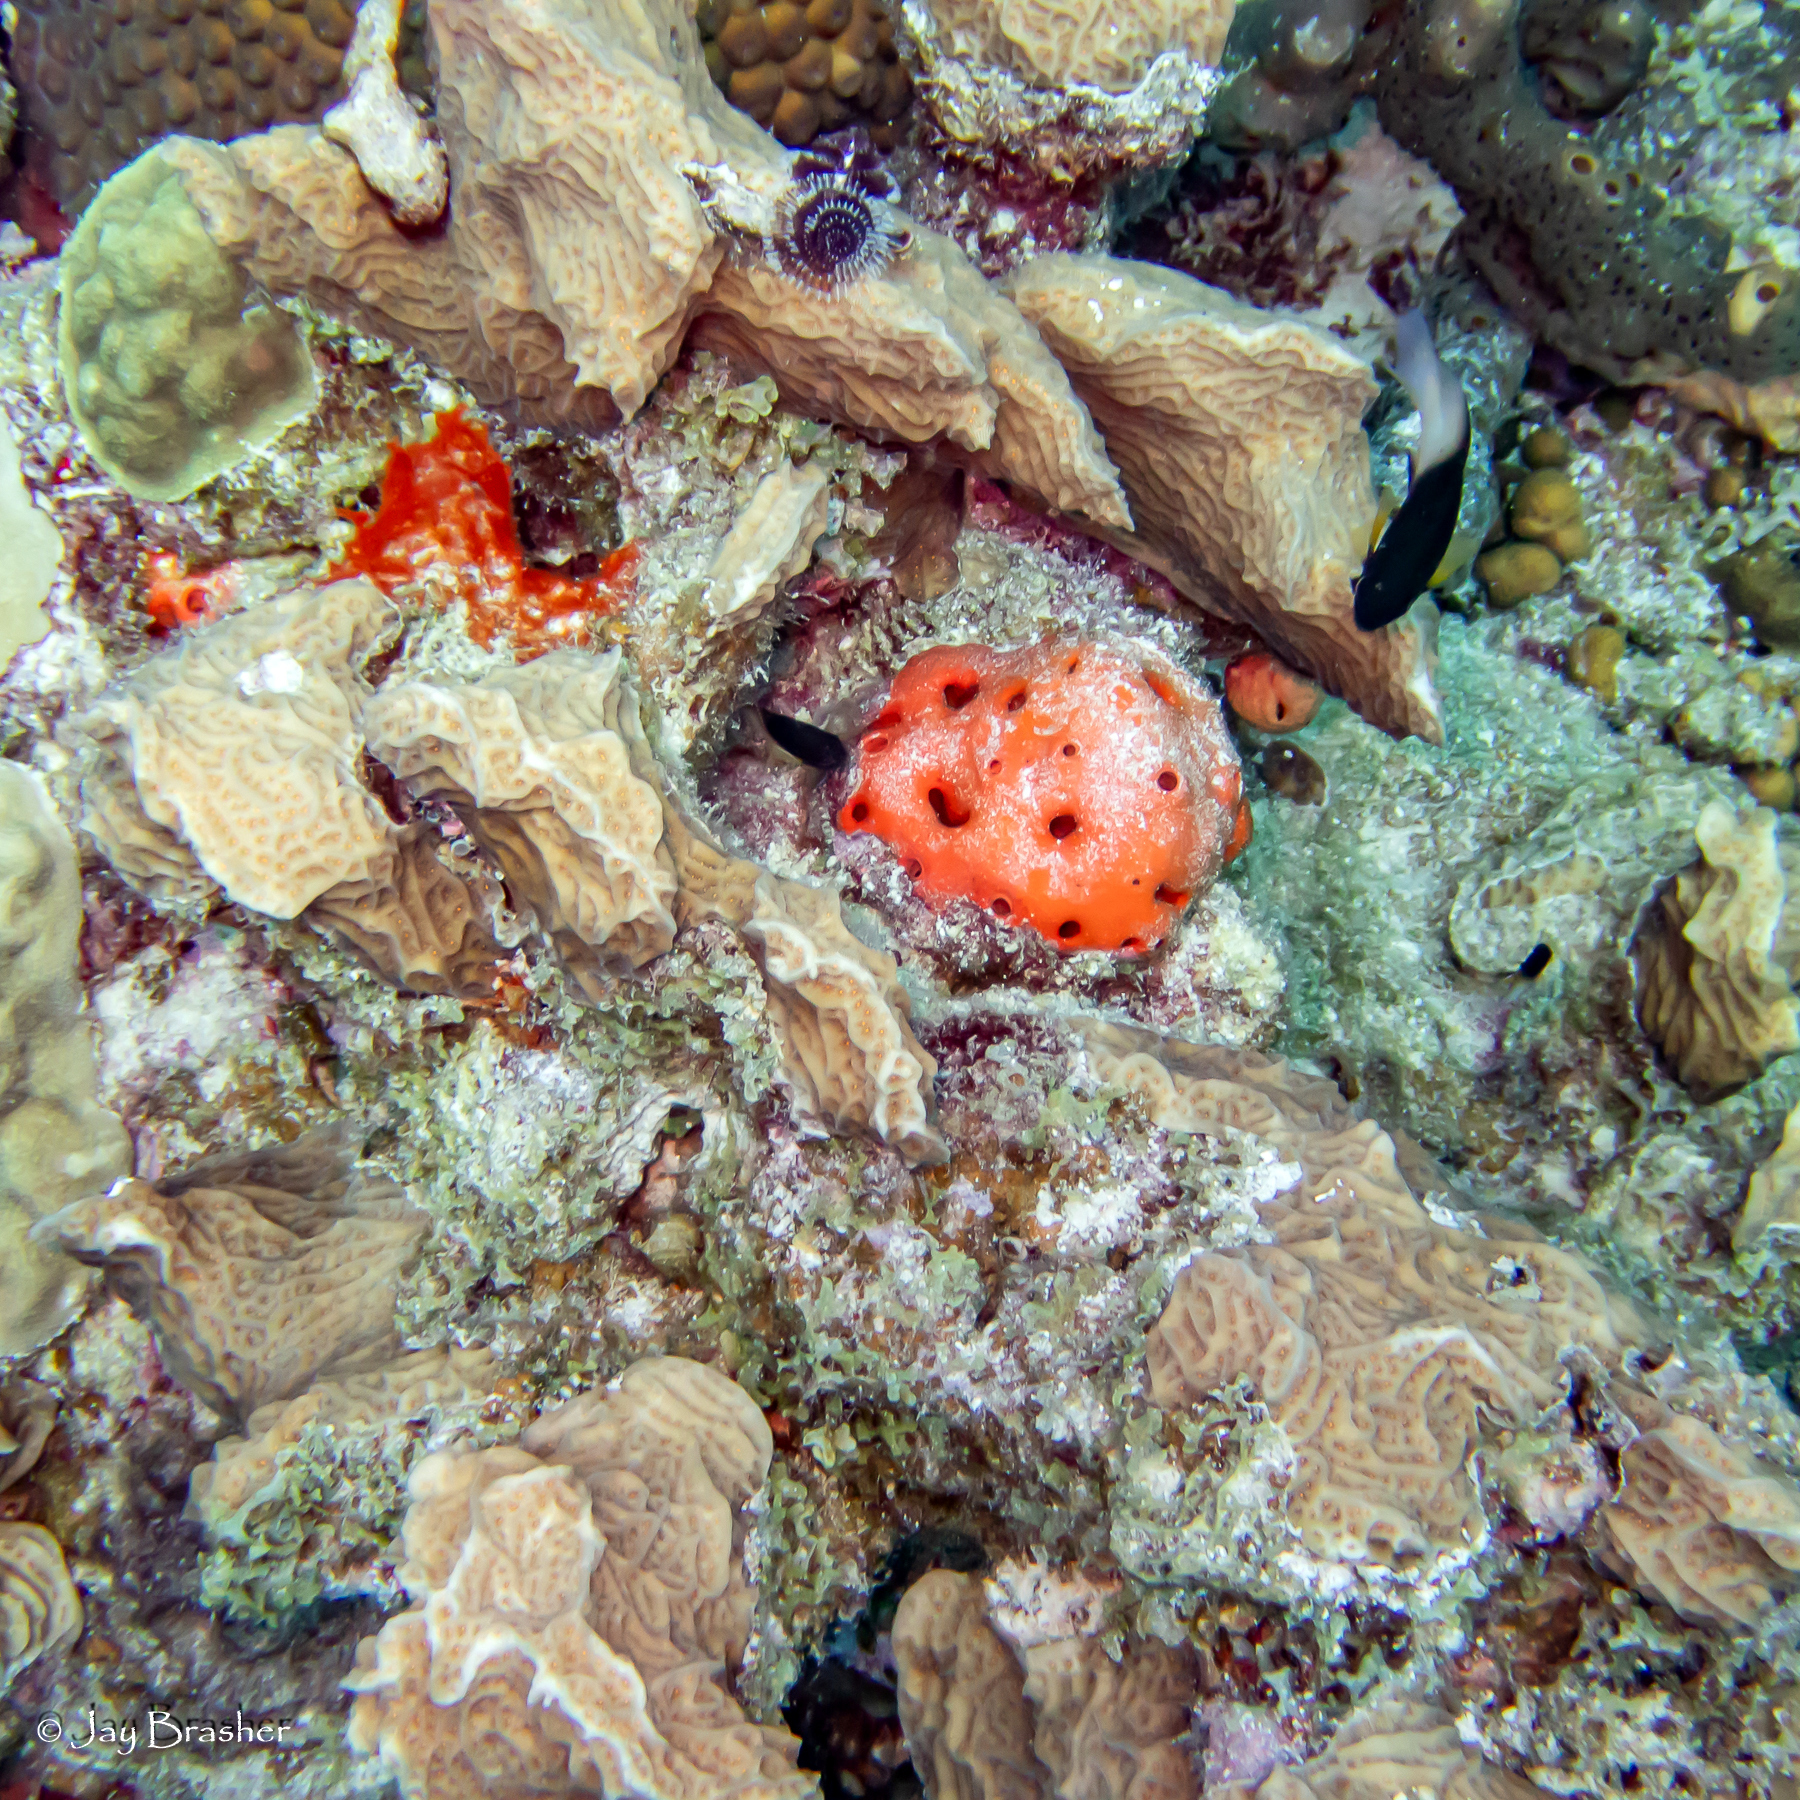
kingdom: Animalia
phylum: Porifera
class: Demospongiae
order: Agelasida
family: Agelasidae
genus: Agelas
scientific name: Agelas sventres
